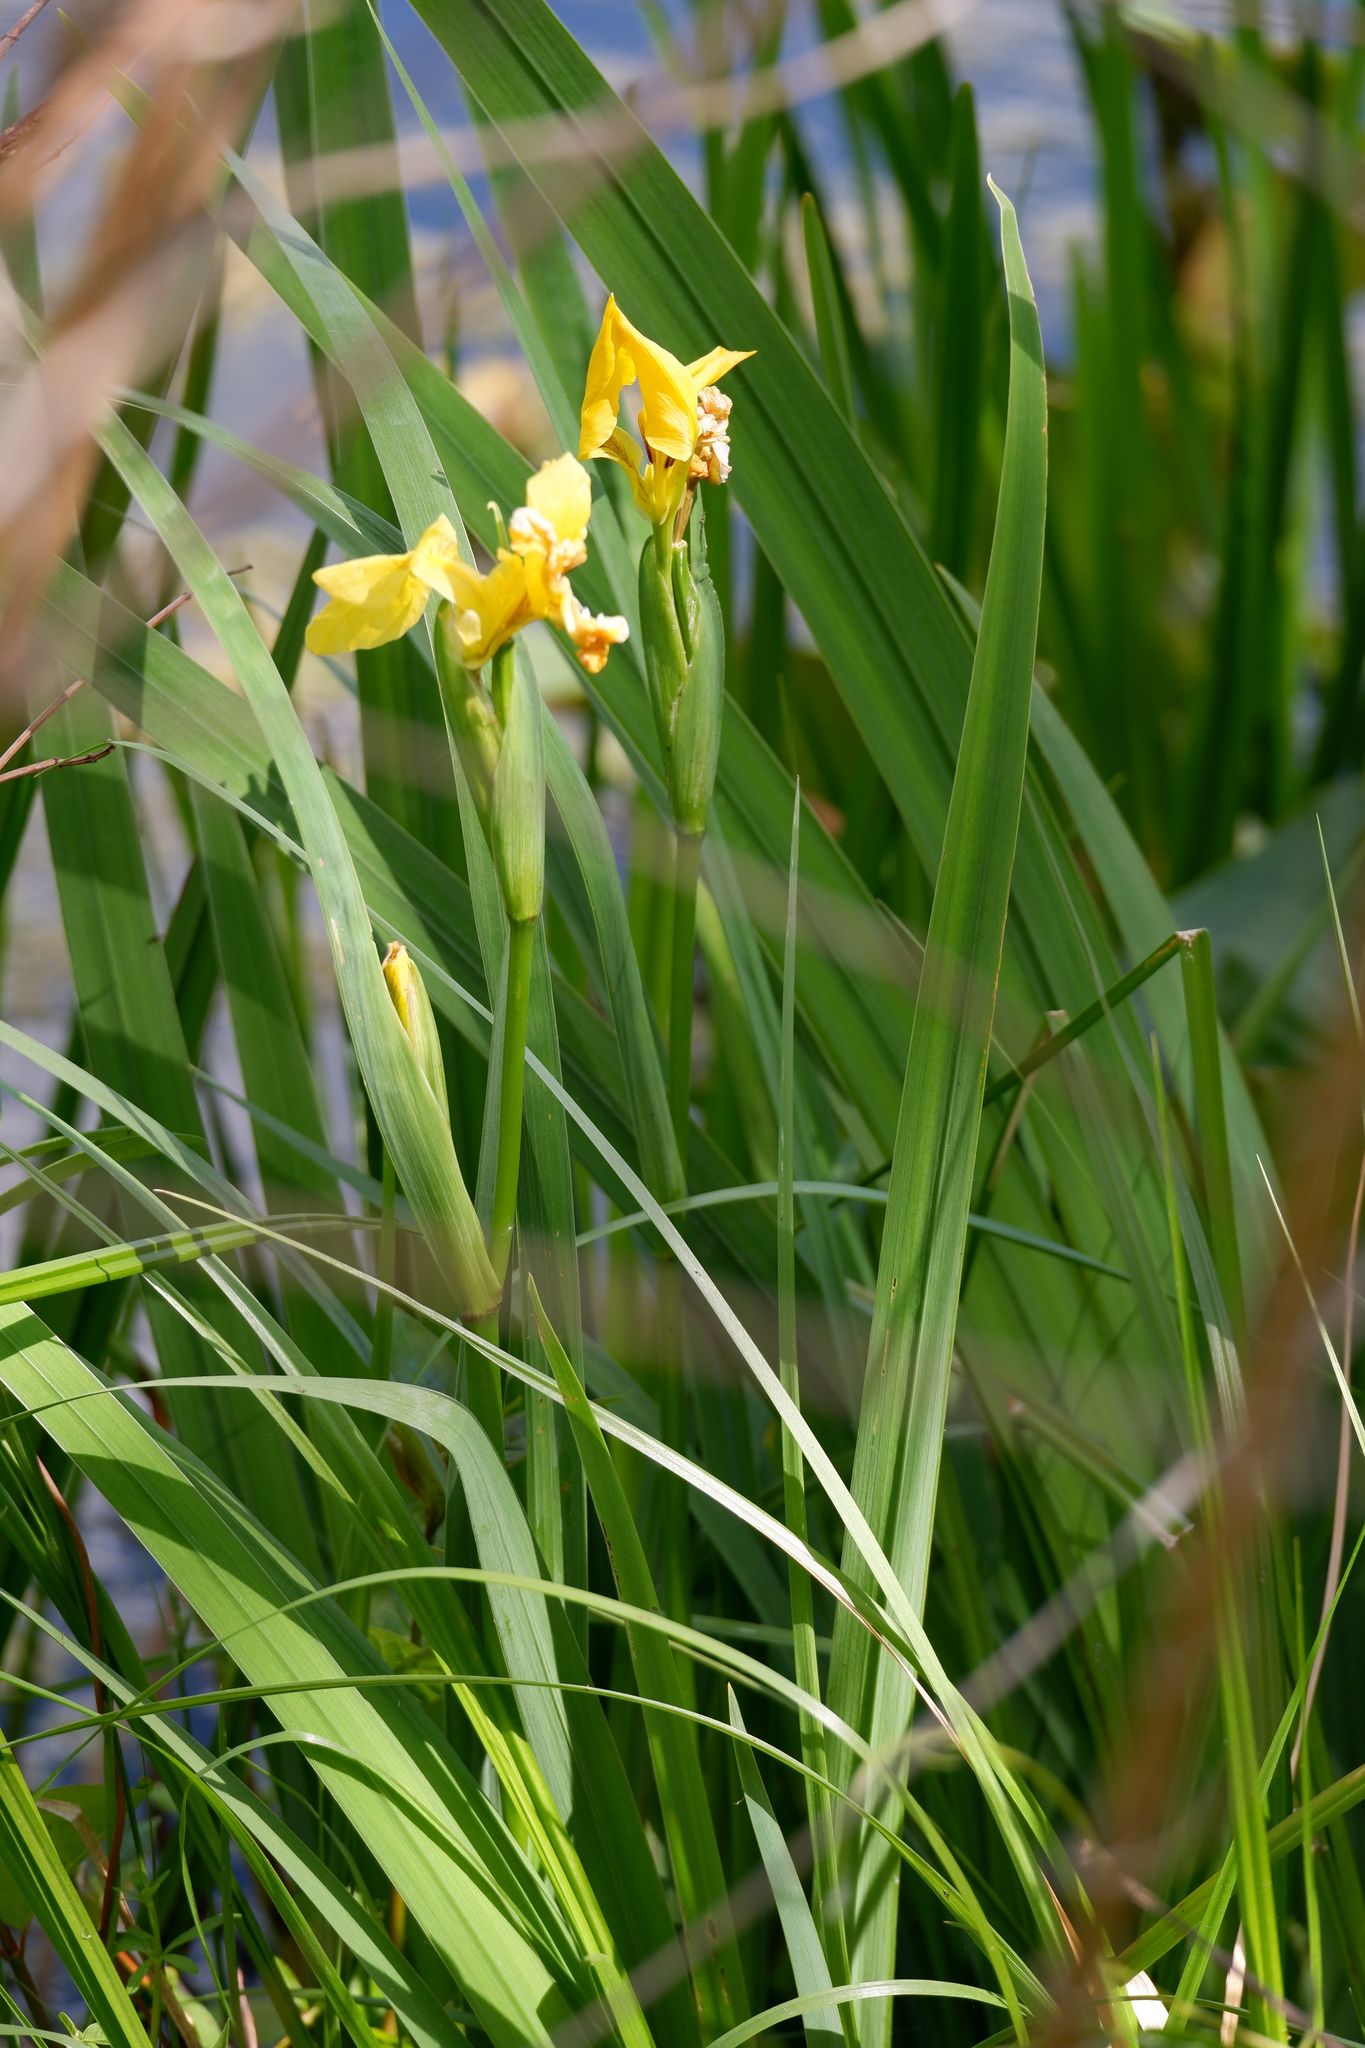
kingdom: Plantae
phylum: Tracheophyta
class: Liliopsida
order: Asparagales
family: Iridaceae
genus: Iris
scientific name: Iris pseudacorus
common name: Yellow flag
